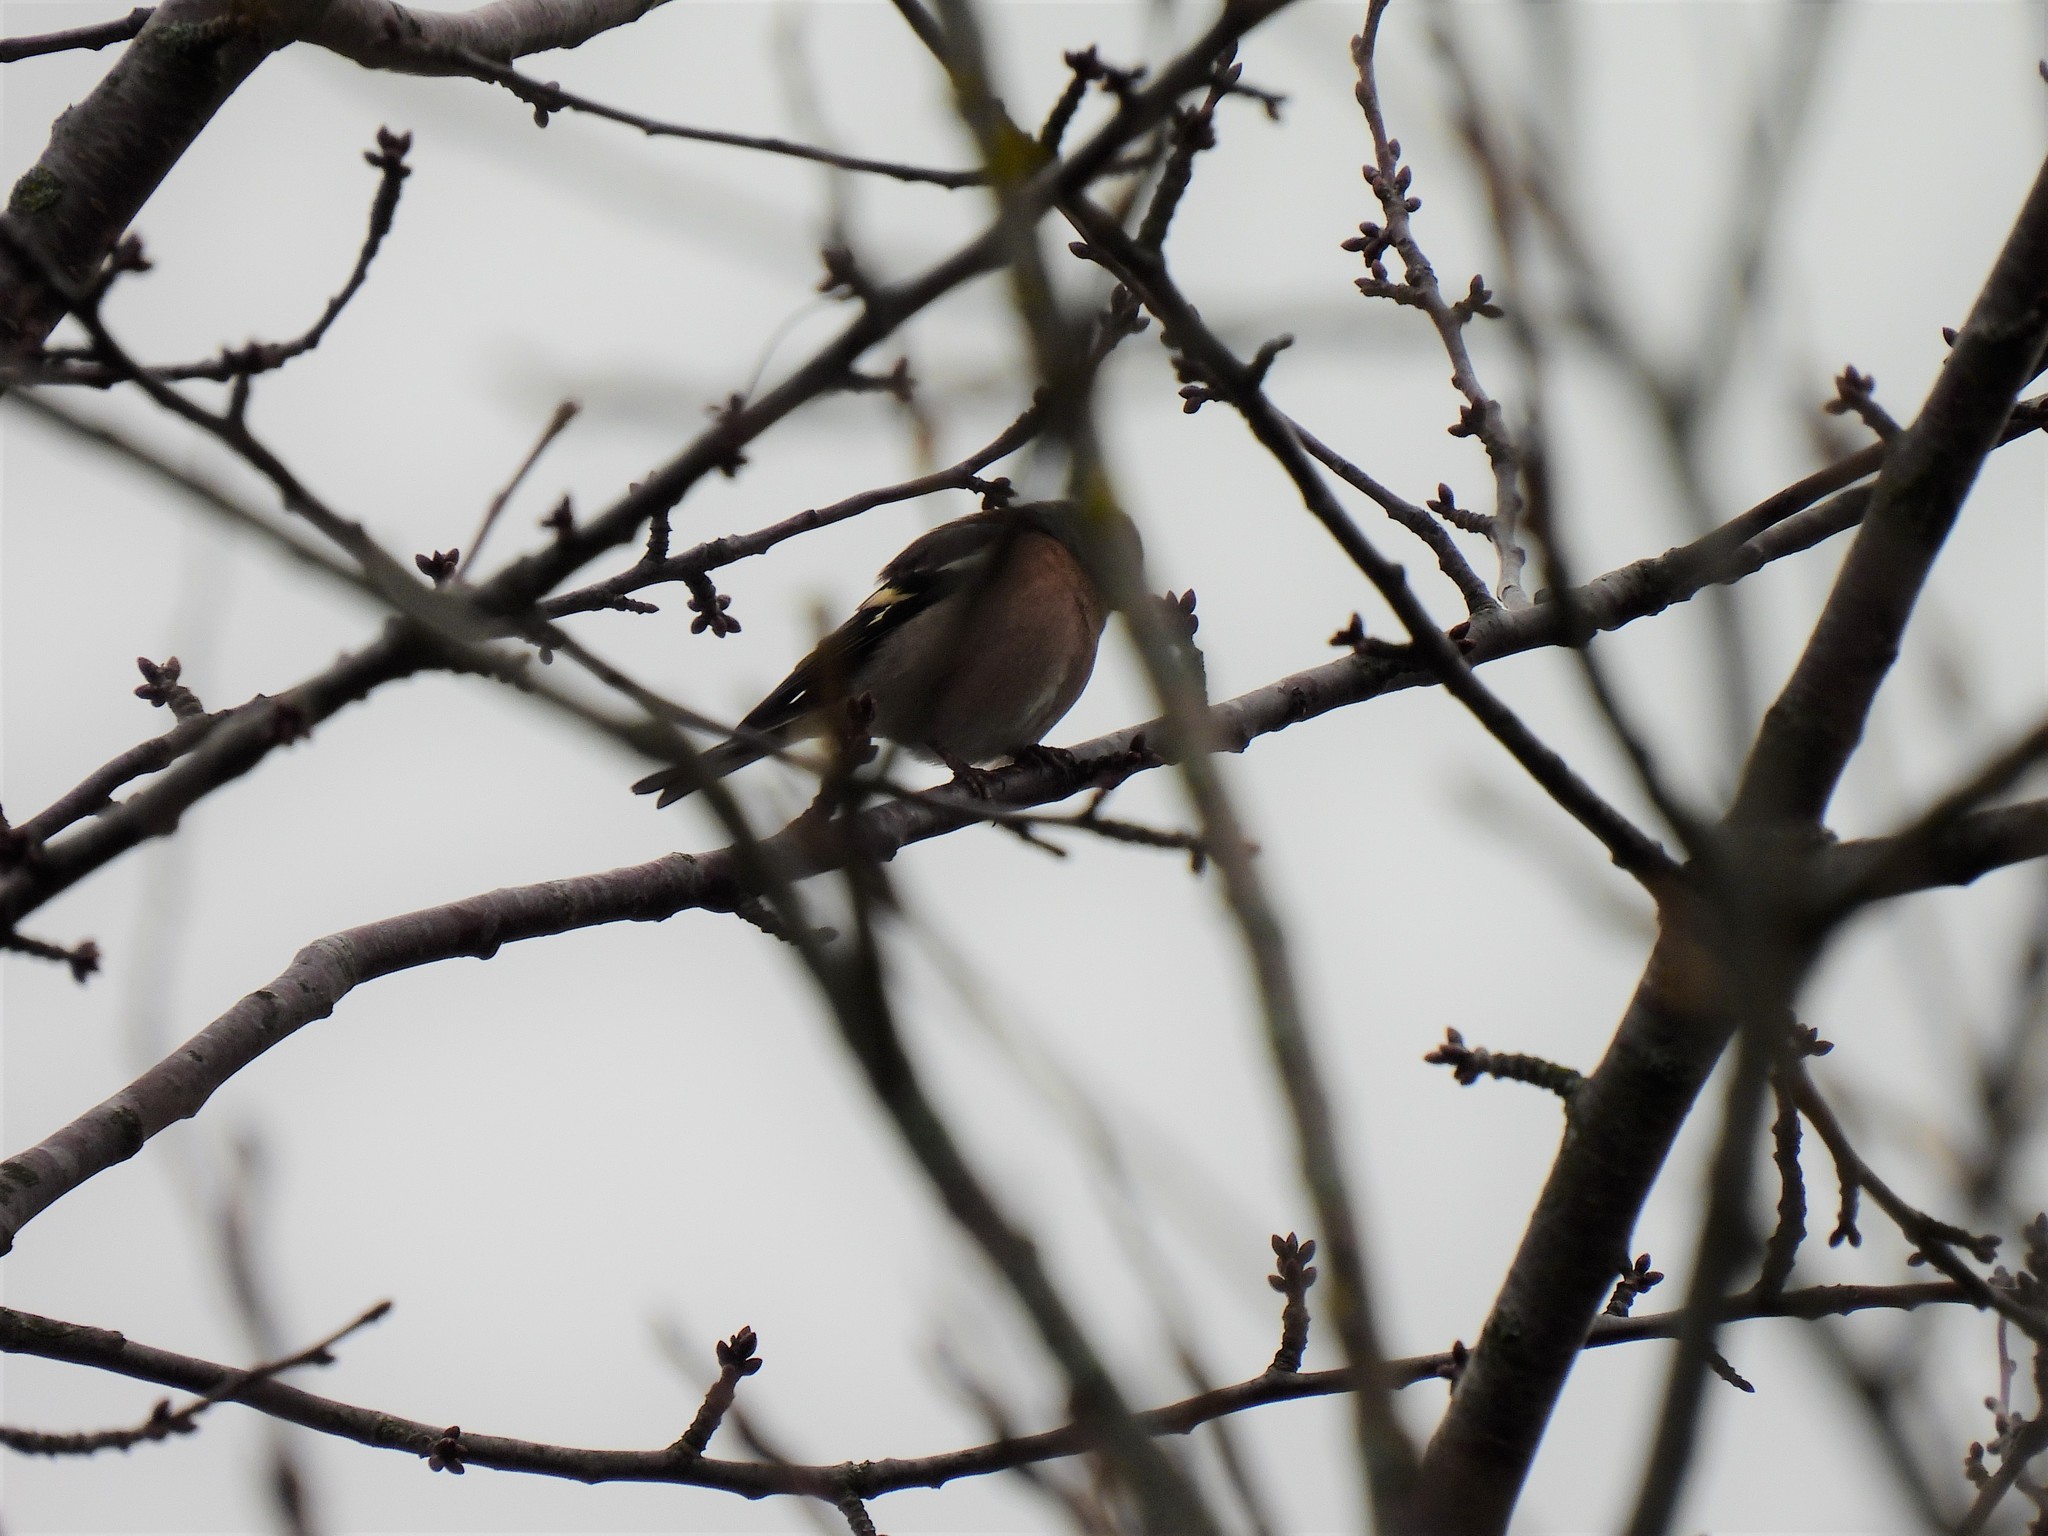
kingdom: Animalia
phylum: Chordata
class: Aves
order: Passeriformes
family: Fringillidae
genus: Fringilla
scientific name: Fringilla coelebs
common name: Common chaffinch
